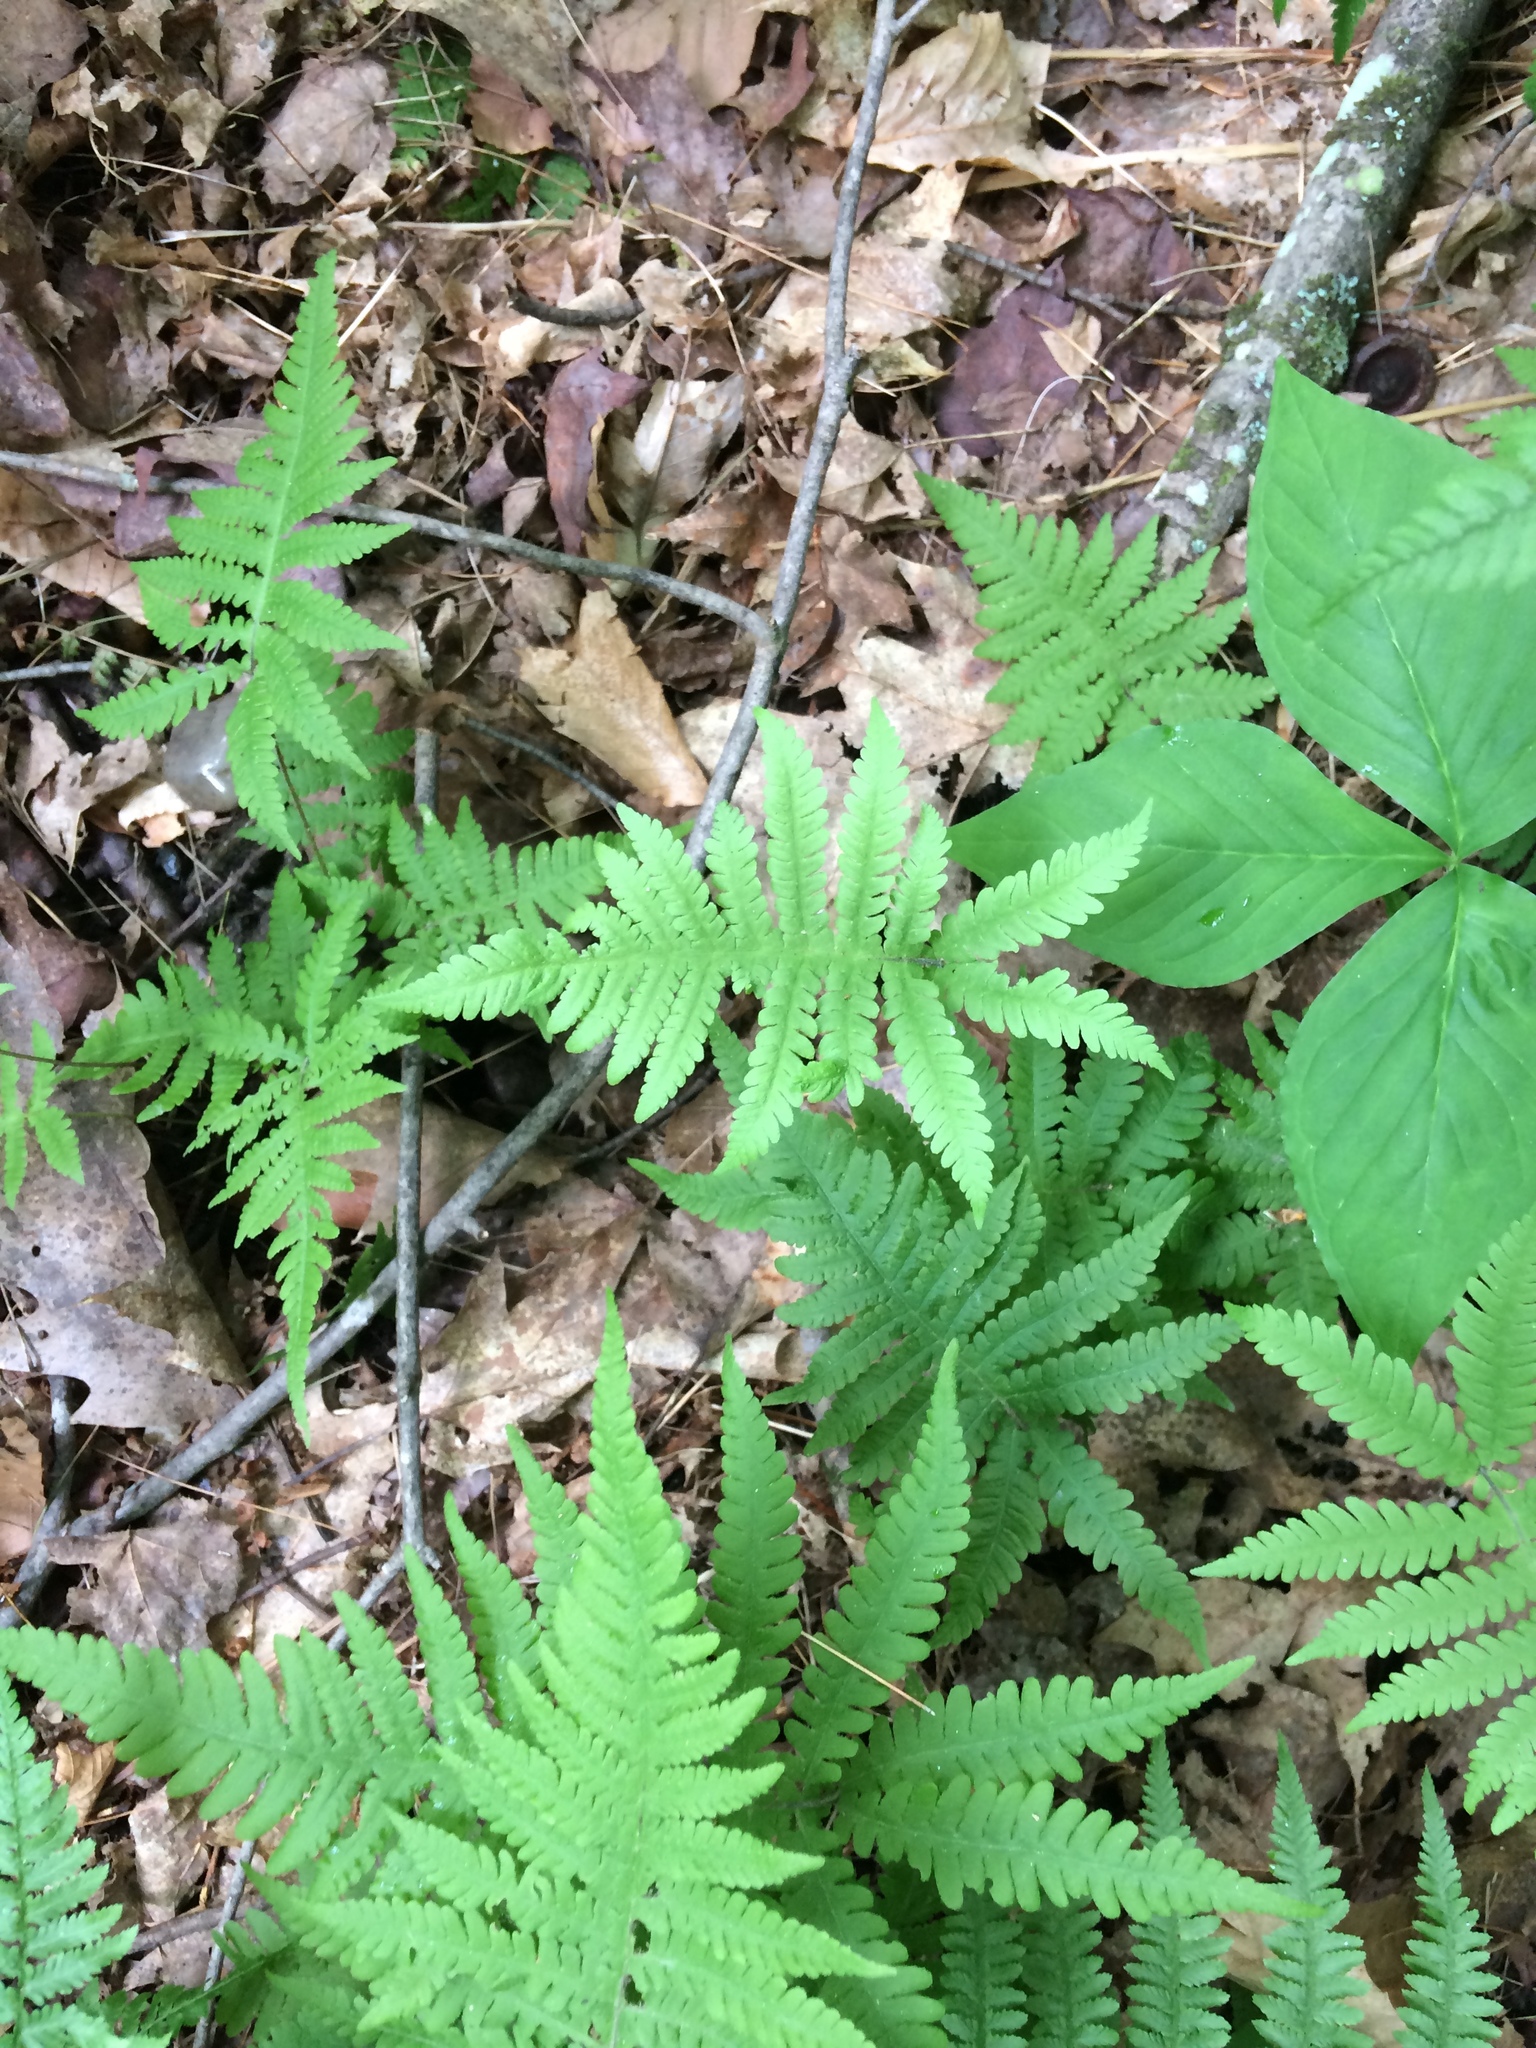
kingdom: Plantae
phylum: Tracheophyta
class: Polypodiopsida
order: Polypodiales
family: Thelypteridaceae
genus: Phegopteris
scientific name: Phegopteris connectilis
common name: Beech fern
